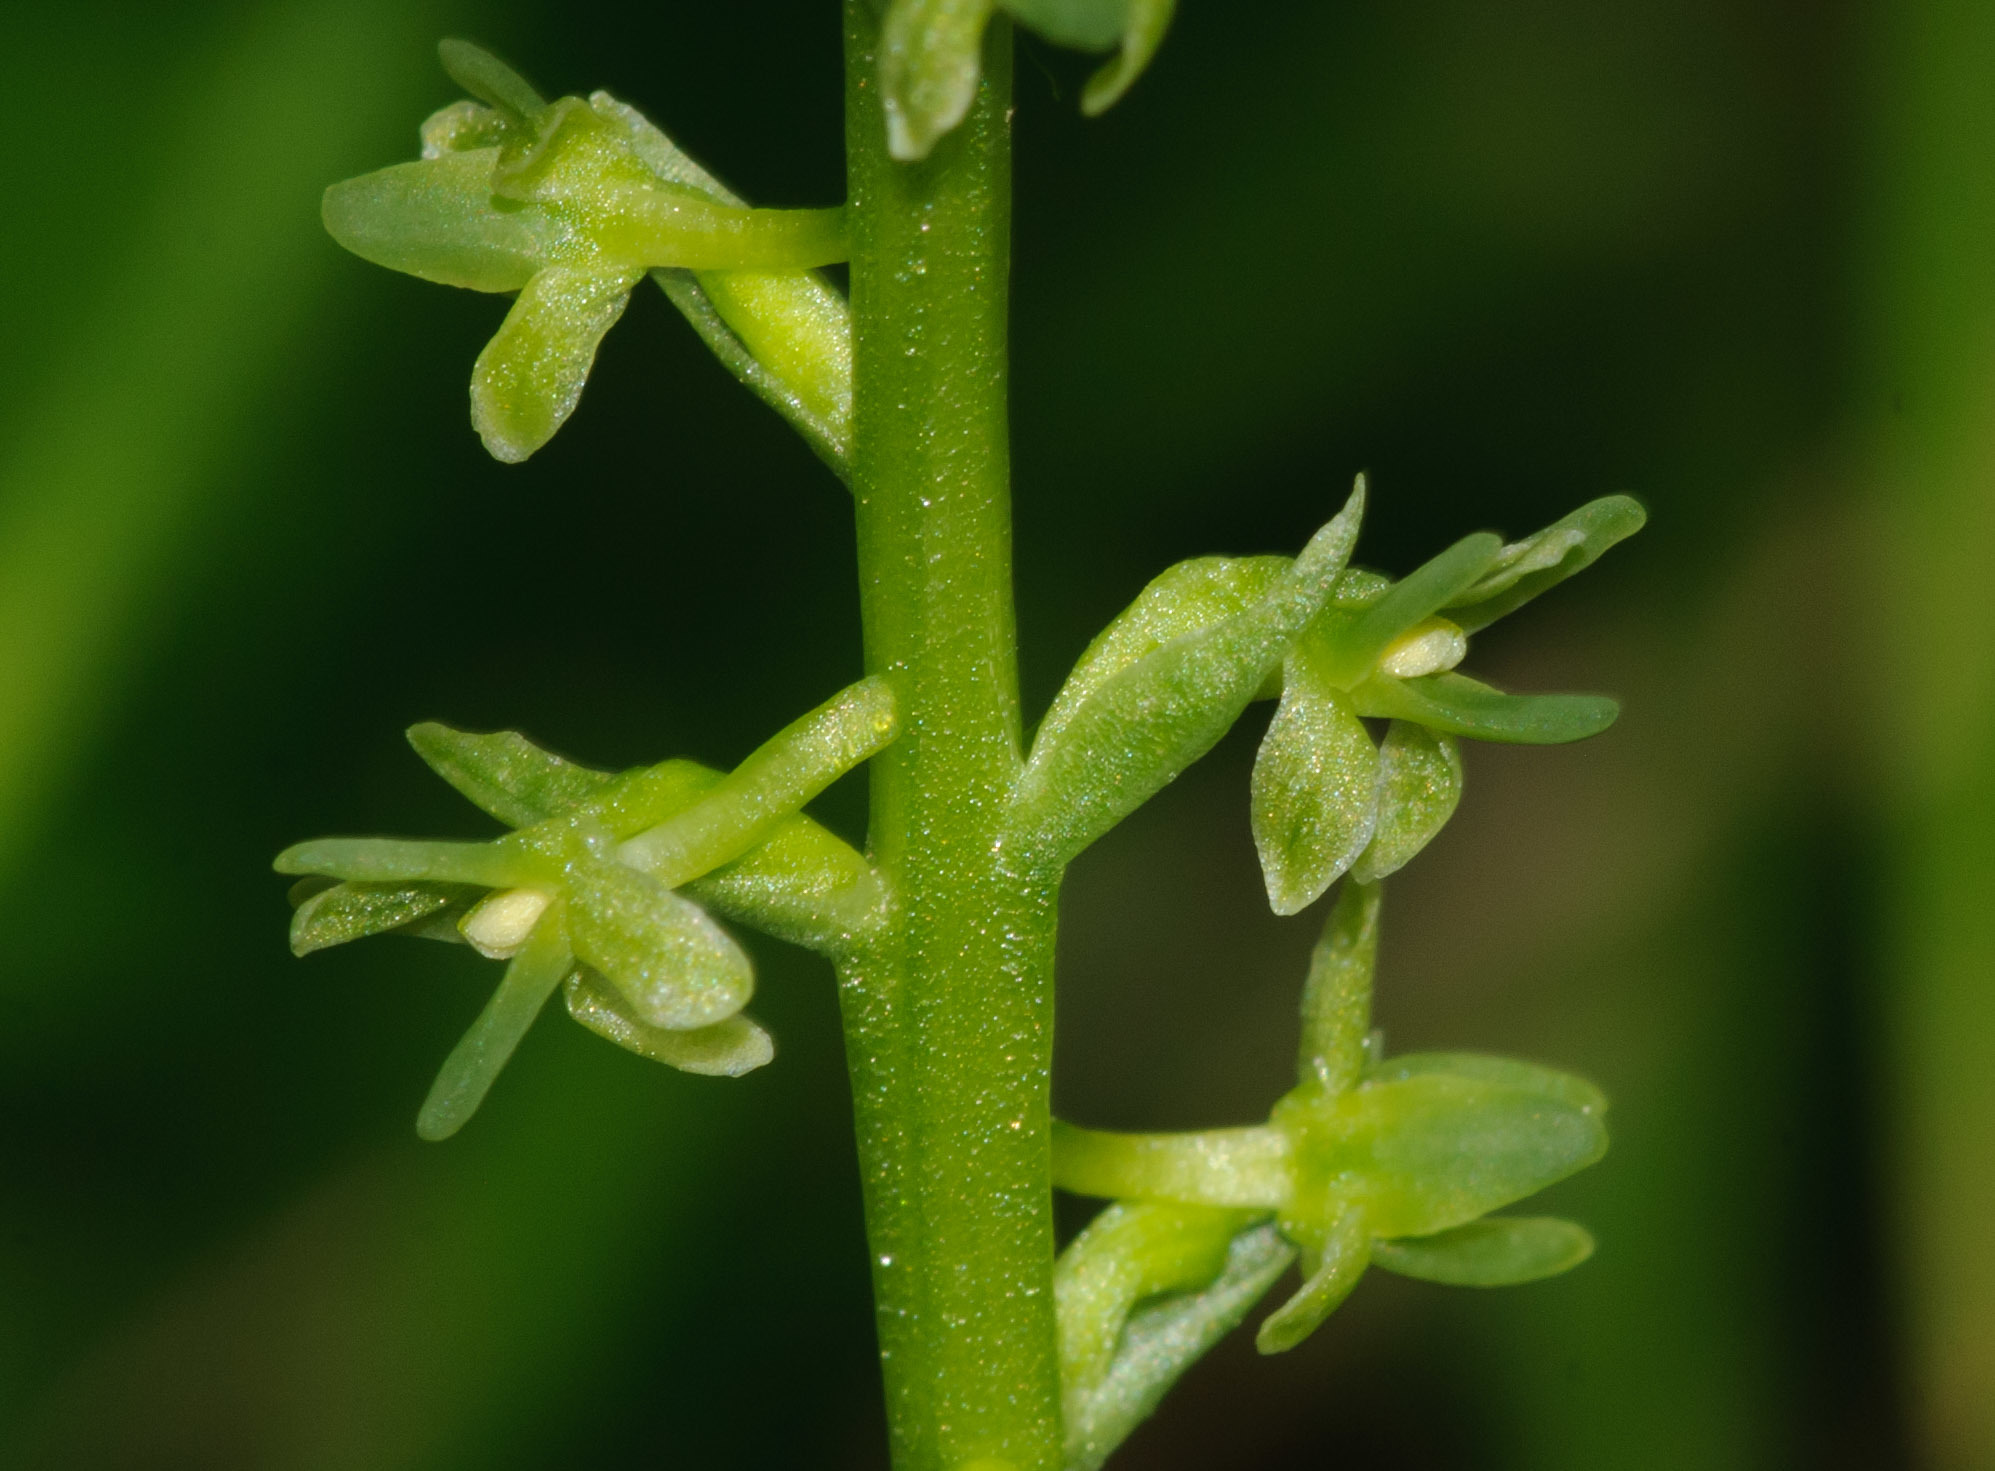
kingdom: Plantae
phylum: Tracheophyta
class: Liliopsida
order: Asparagales
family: Orchidaceae
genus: Platanthera
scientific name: Platanthera unalascensis
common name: Alaska bog orchid
